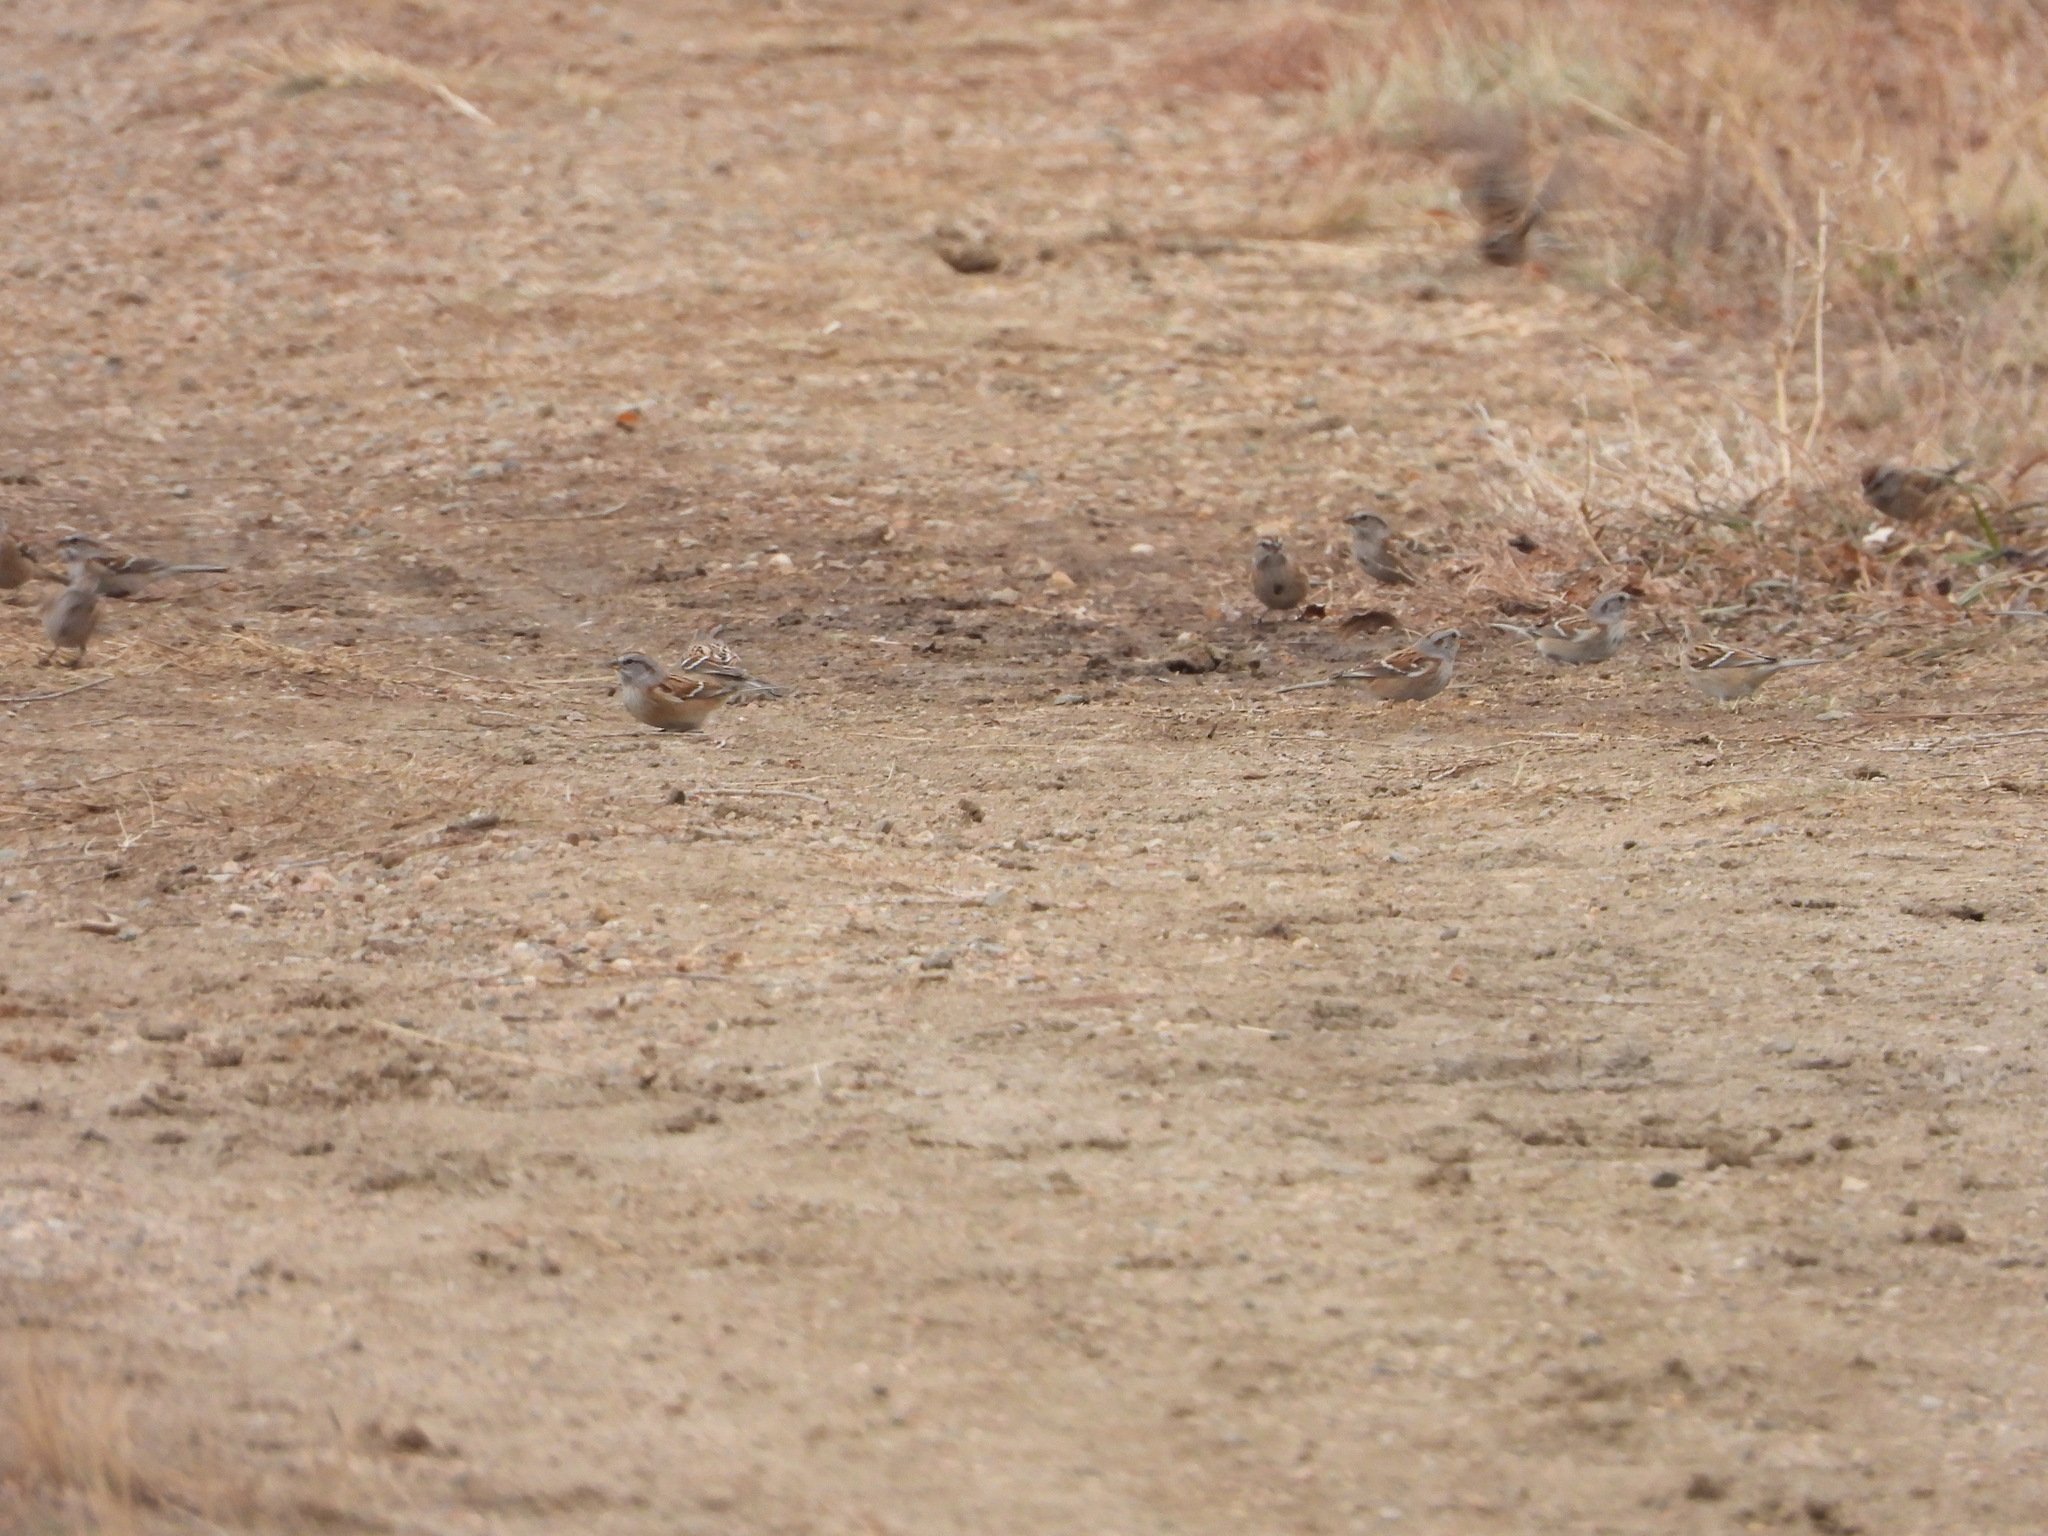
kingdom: Animalia
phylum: Chordata
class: Aves
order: Passeriformes
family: Passerellidae
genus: Spizelloides
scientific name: Spizelloides arborea
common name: American tree sparrow
